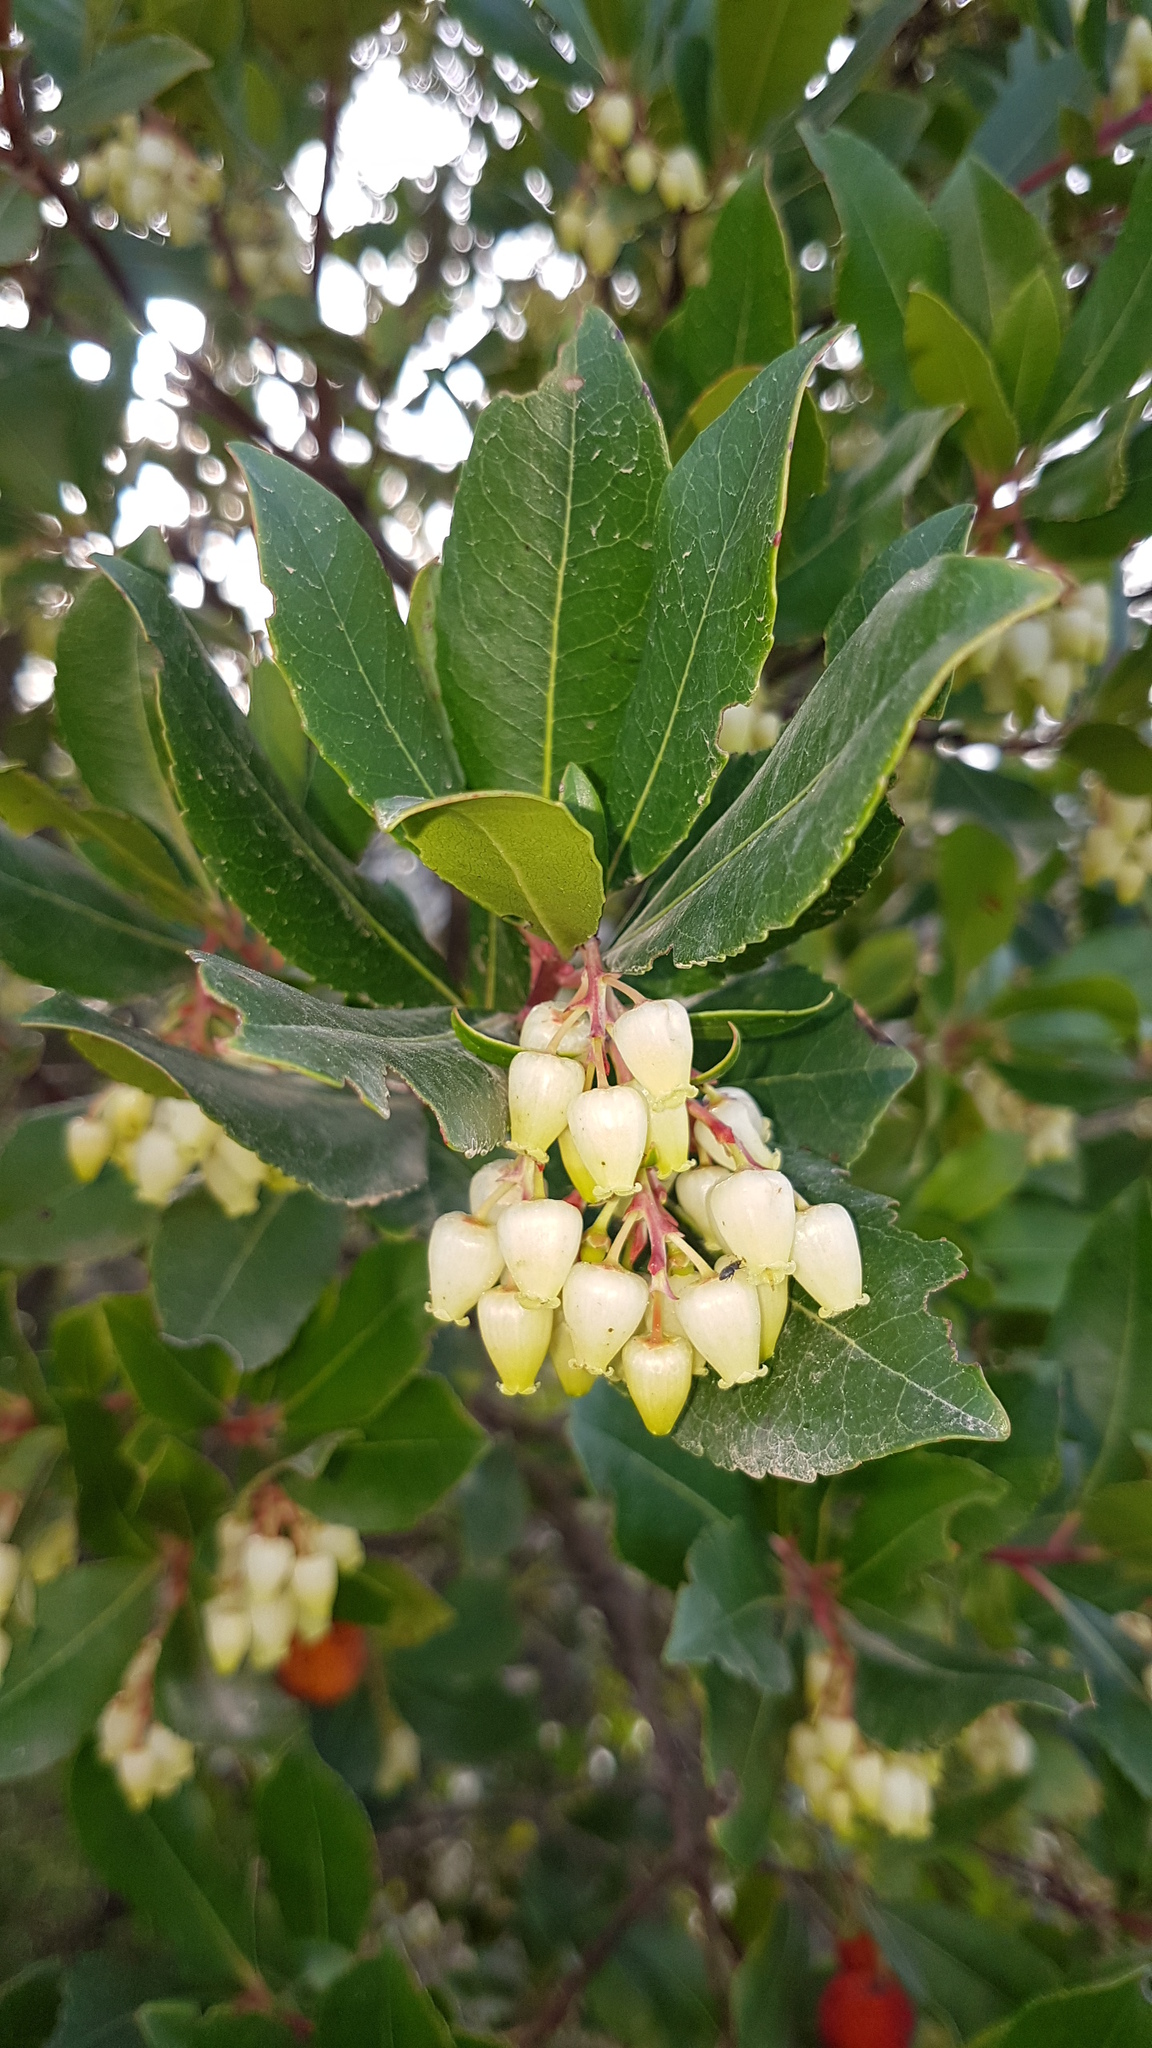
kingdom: Plantae
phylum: Tracheophyta
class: Magnoliopsida
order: Ericales
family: Ericaceae
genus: Arbutus
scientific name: Arbutus unedo
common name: Strawberry-tree
